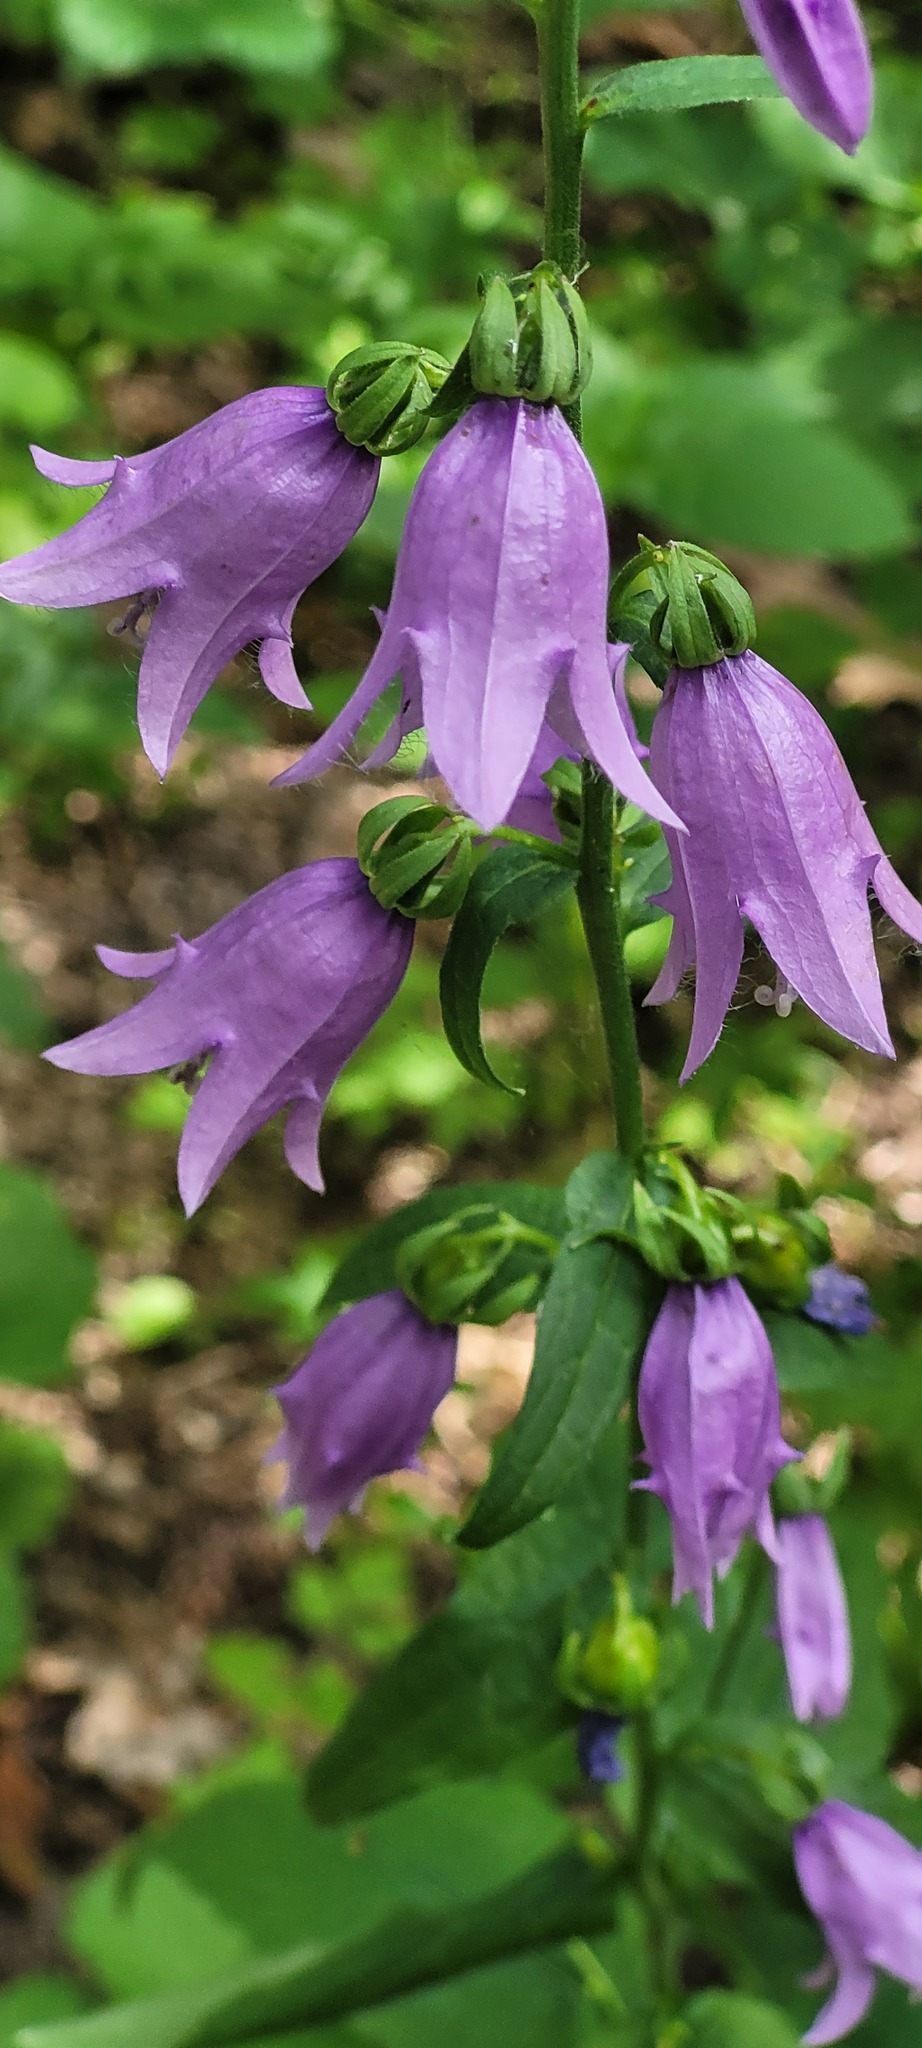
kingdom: Plantae
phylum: Tracheophyta
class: Magnoliopsida
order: Asterales
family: Campanulaceae
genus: Campanula
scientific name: Campanula rapunculoides
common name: Creeping bellflower
